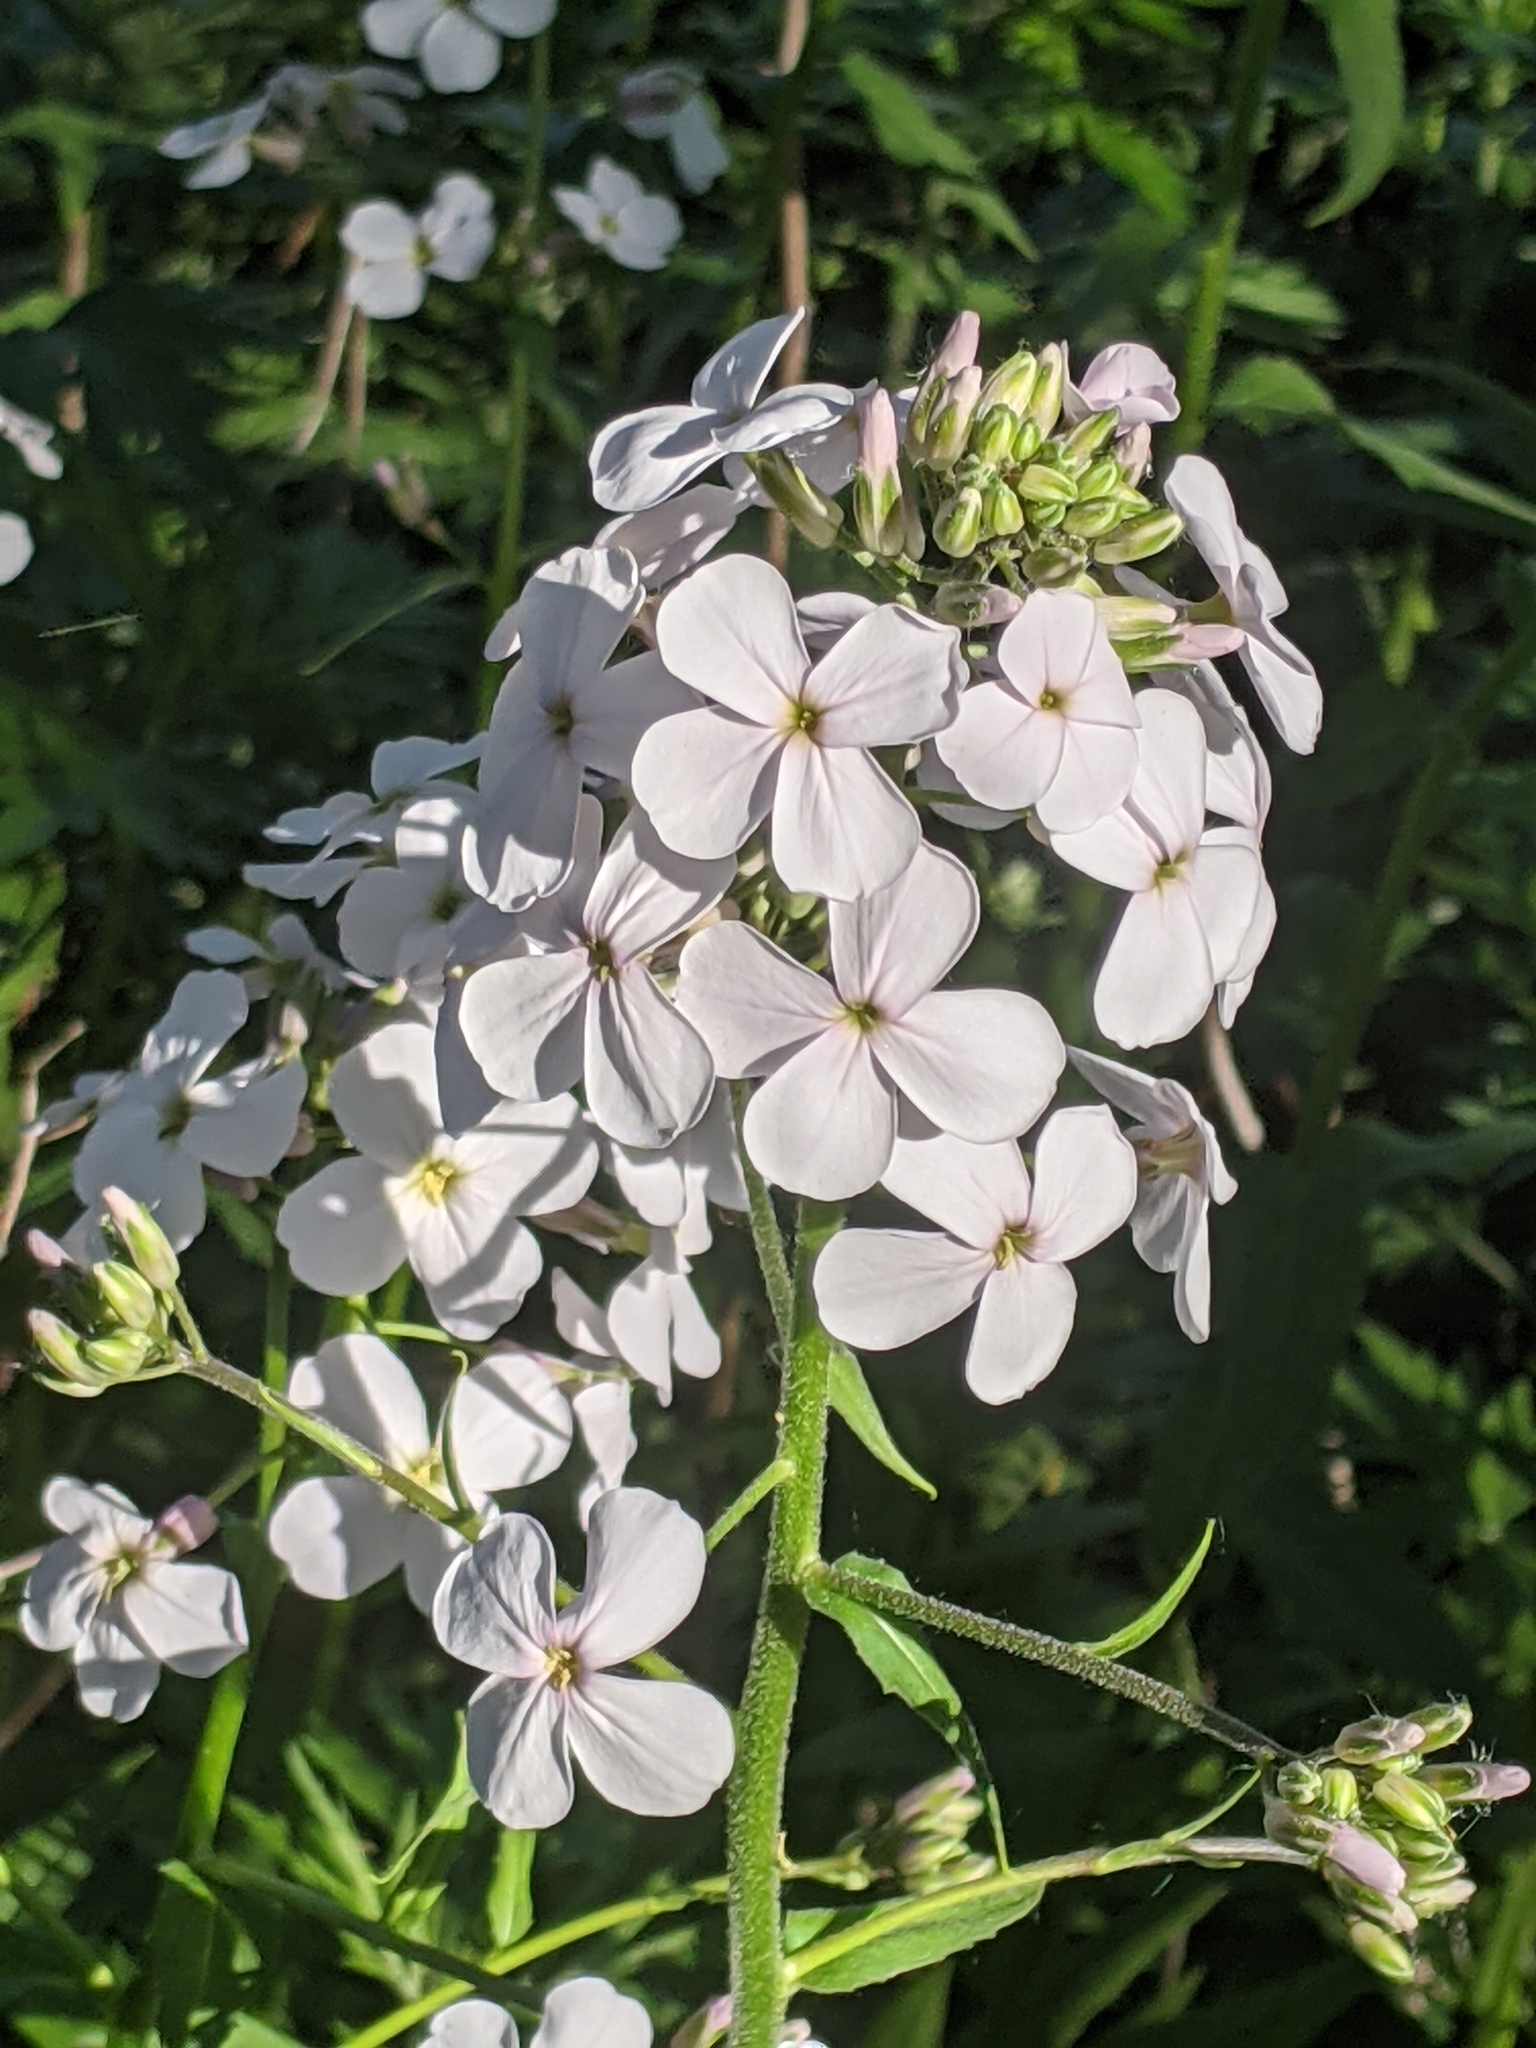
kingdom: Plantae
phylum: Tracheophyta
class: Magnoliopsida
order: Brassicales
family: Brassicaceae
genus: Hesperis
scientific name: Hesperis matronalis
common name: Dame's-violet
